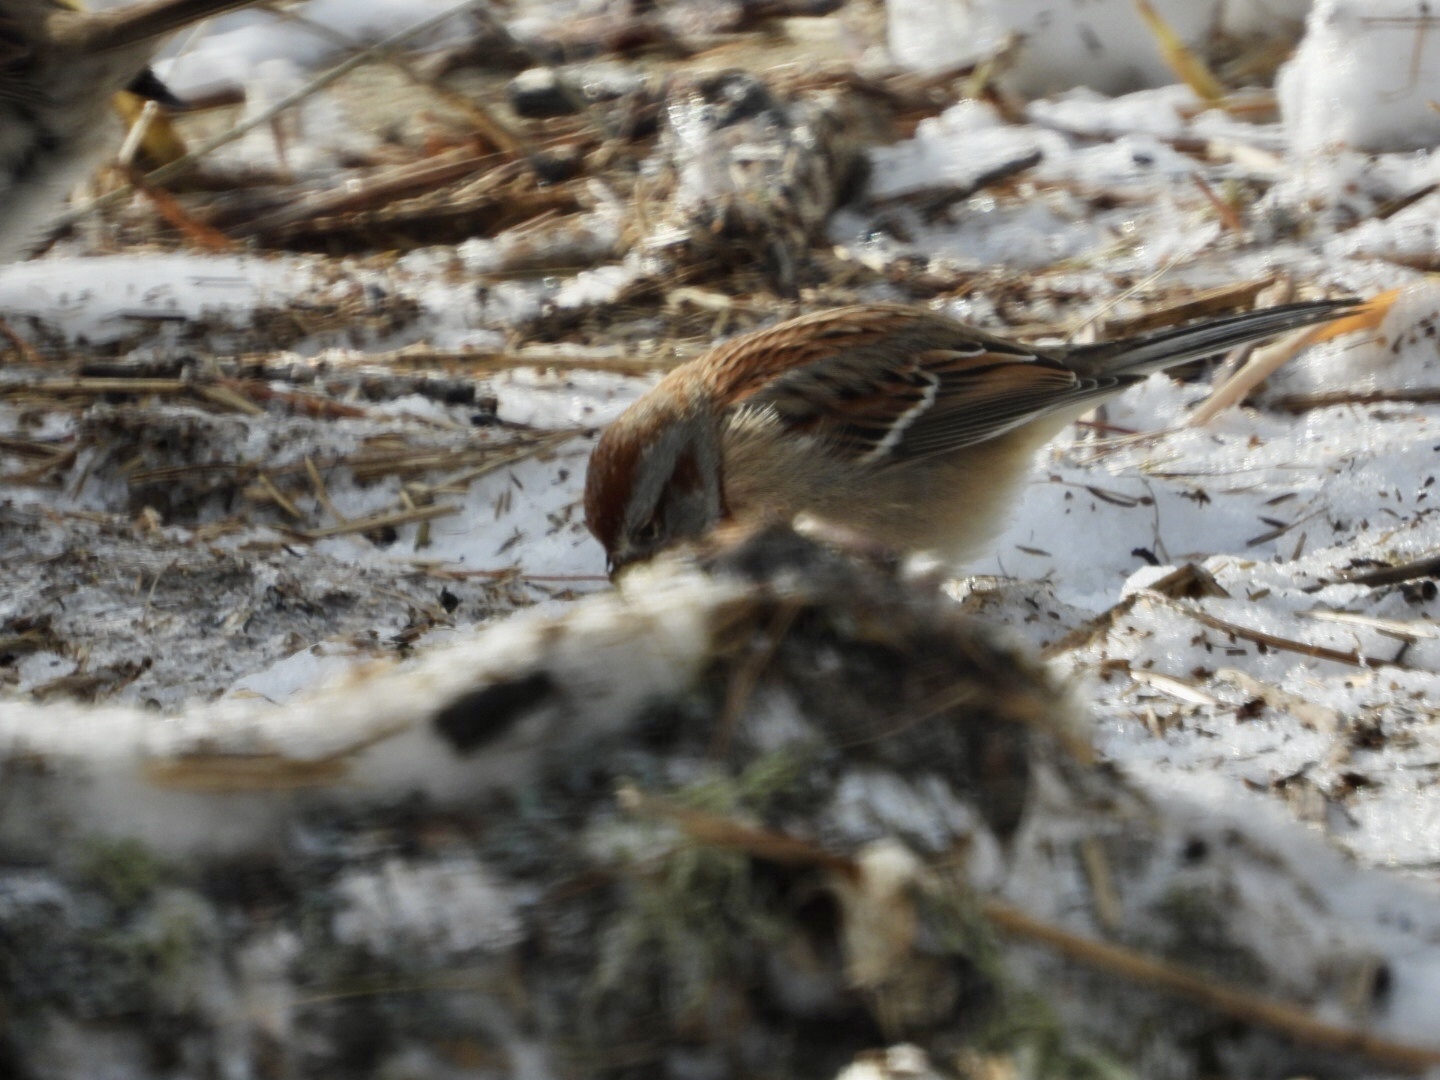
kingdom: Animalia
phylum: Chordata
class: Aves
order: Passeriformes
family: Passerellidae
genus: Spizelloides
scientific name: Spizelloides arborea
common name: American tree sparrow
